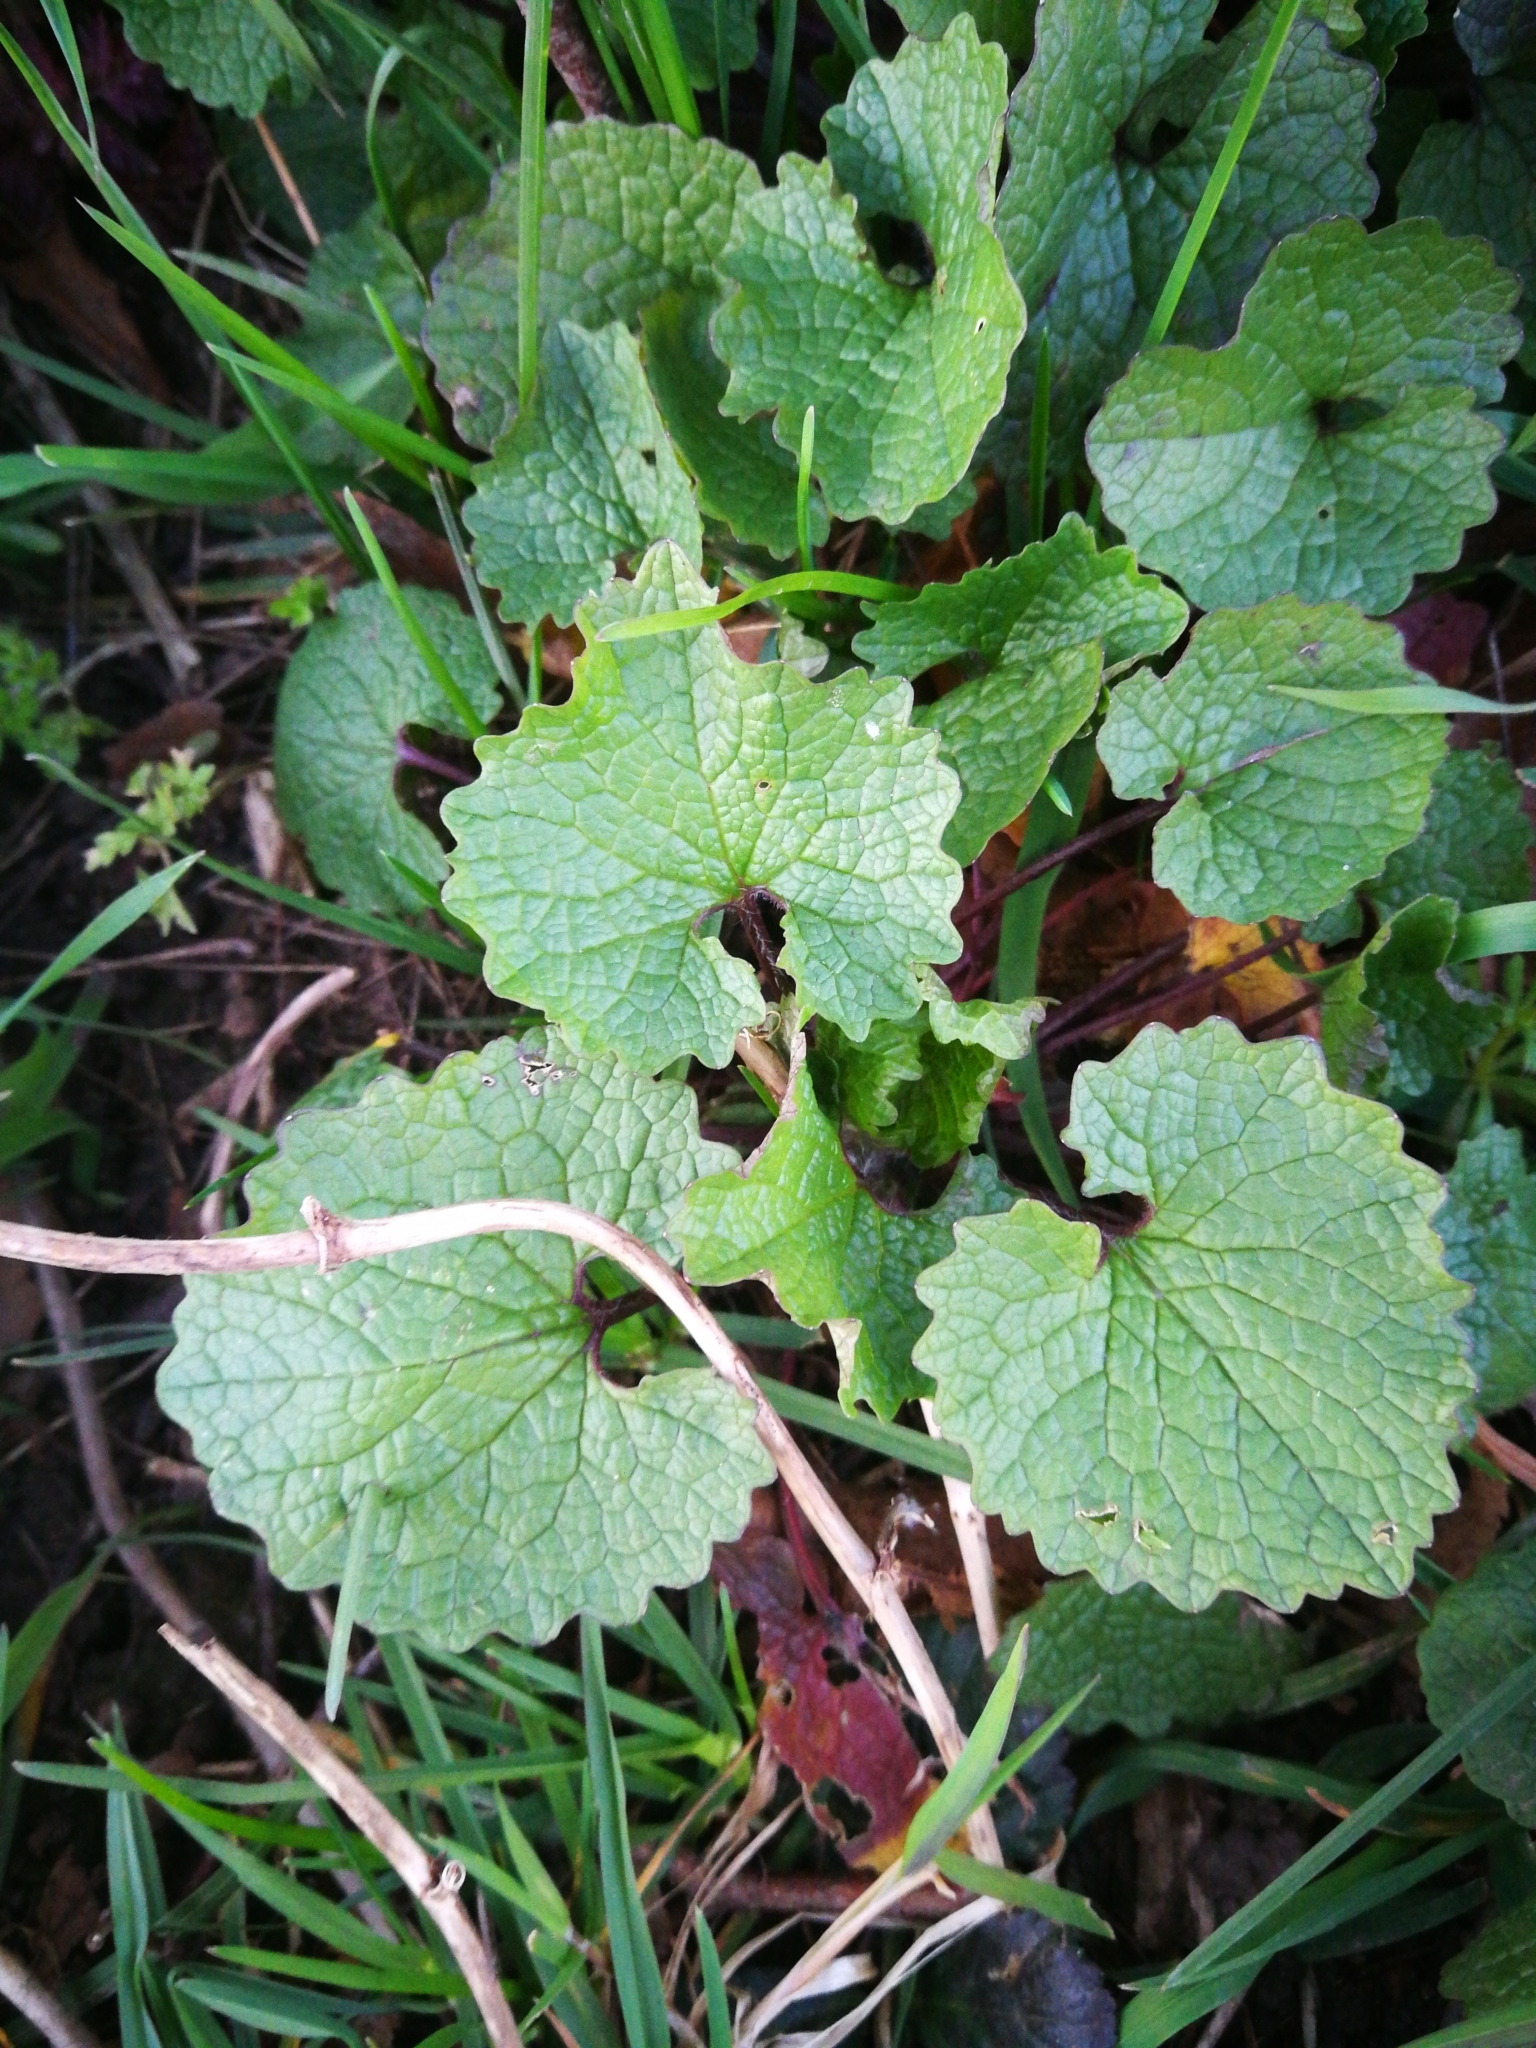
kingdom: Plantae
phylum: Tracheophyta
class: Magnoliopsida
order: Brassicales
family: Brassicaceae
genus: Alliaria
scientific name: Alliaria petiolata
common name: Garlic mustard
